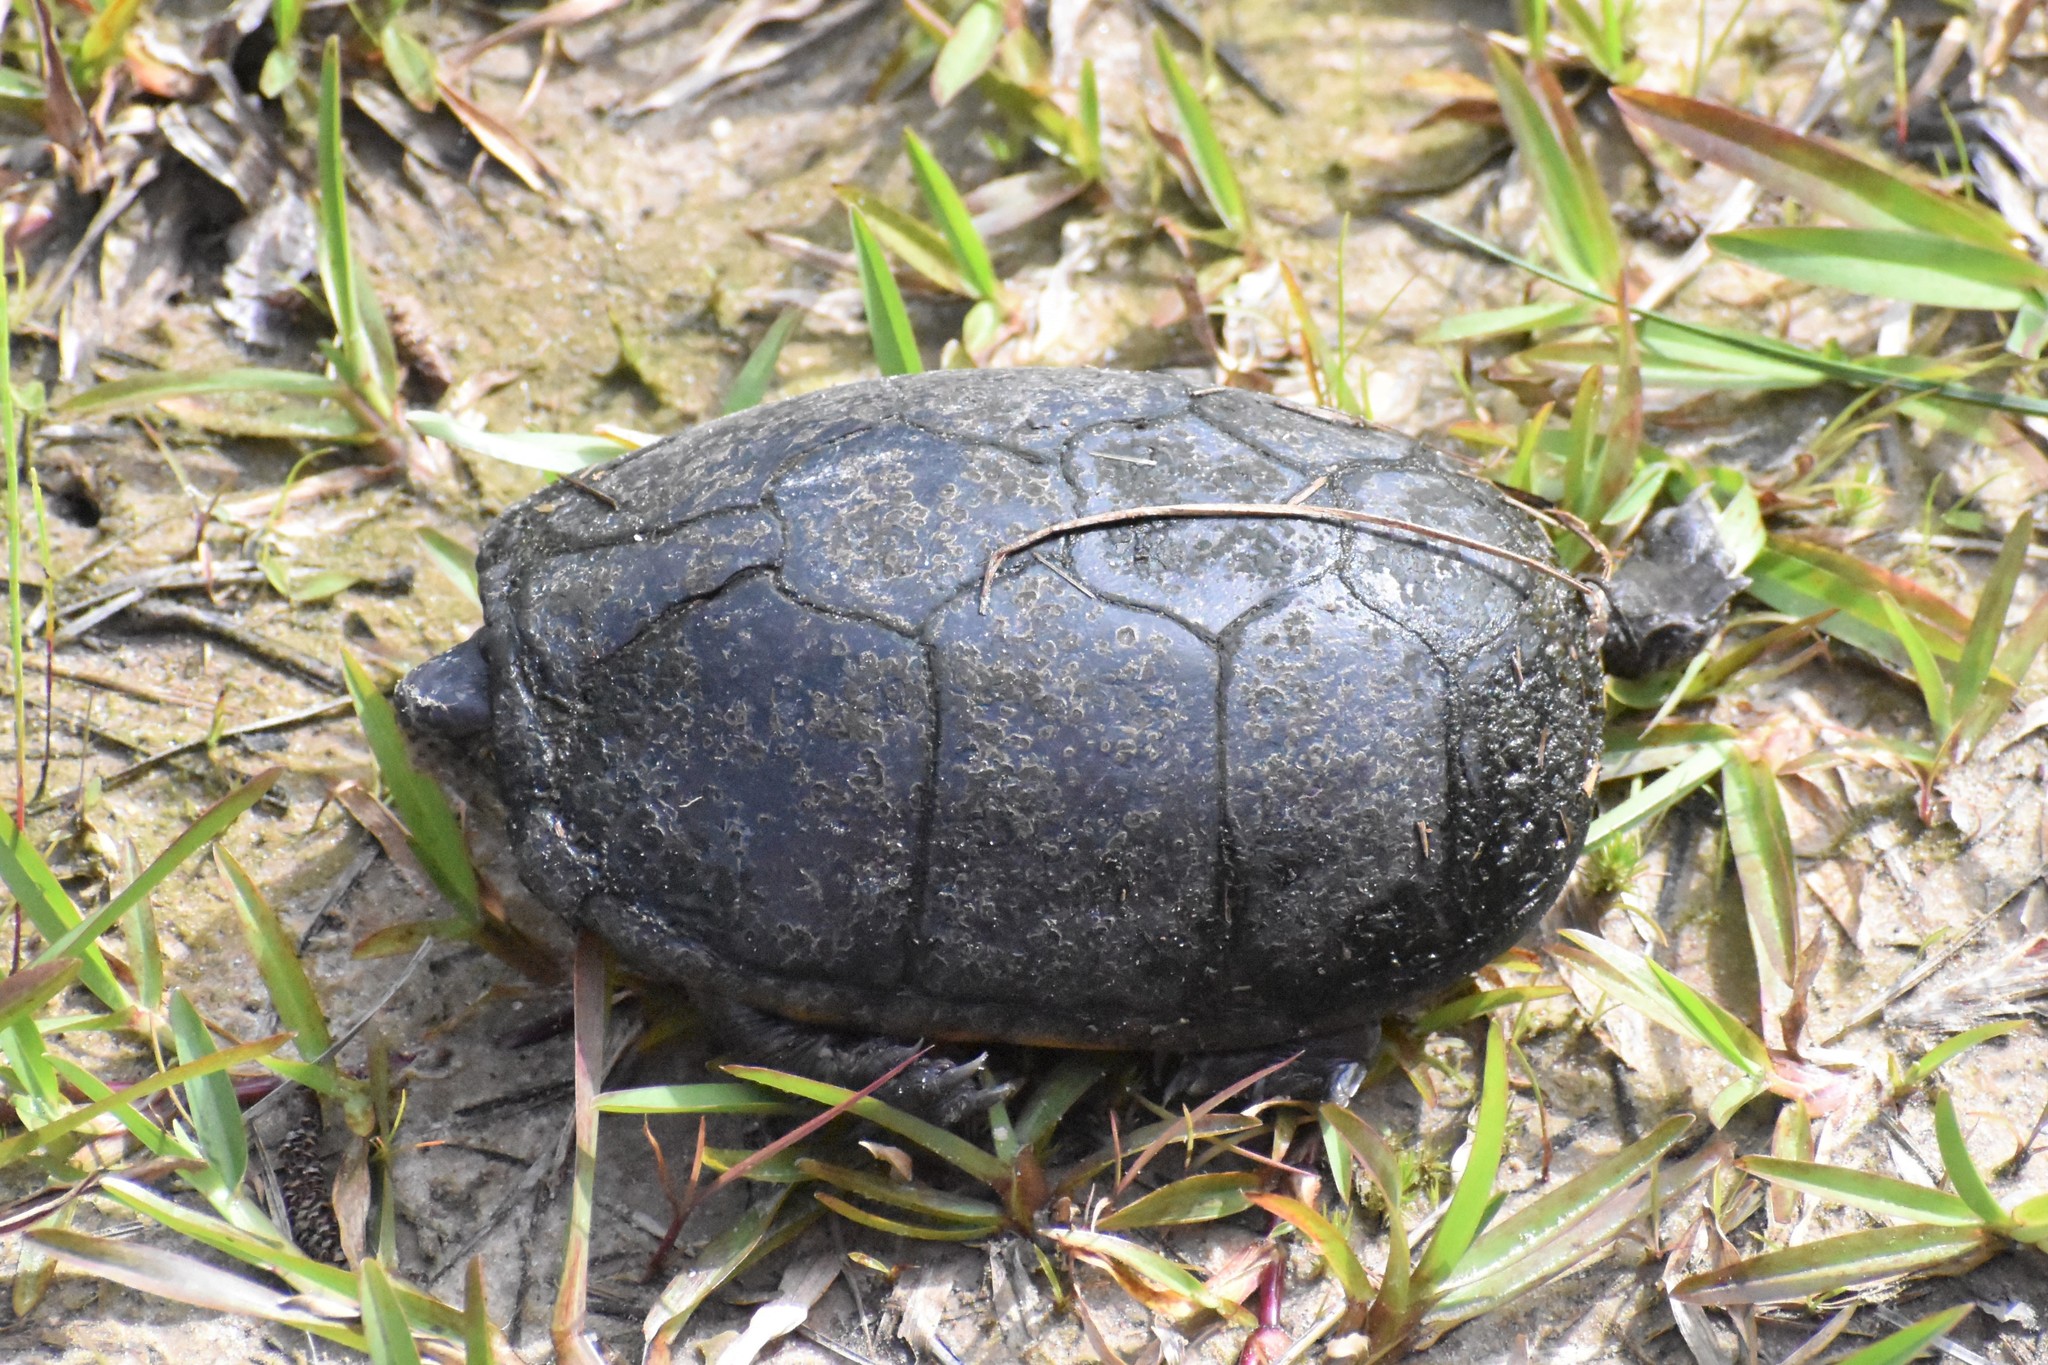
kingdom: Animalia
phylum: Chordata
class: Testudines
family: Kinosternidae
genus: Kinosternon
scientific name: Kinosternon subrubrum
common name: Eastern mud turtle
